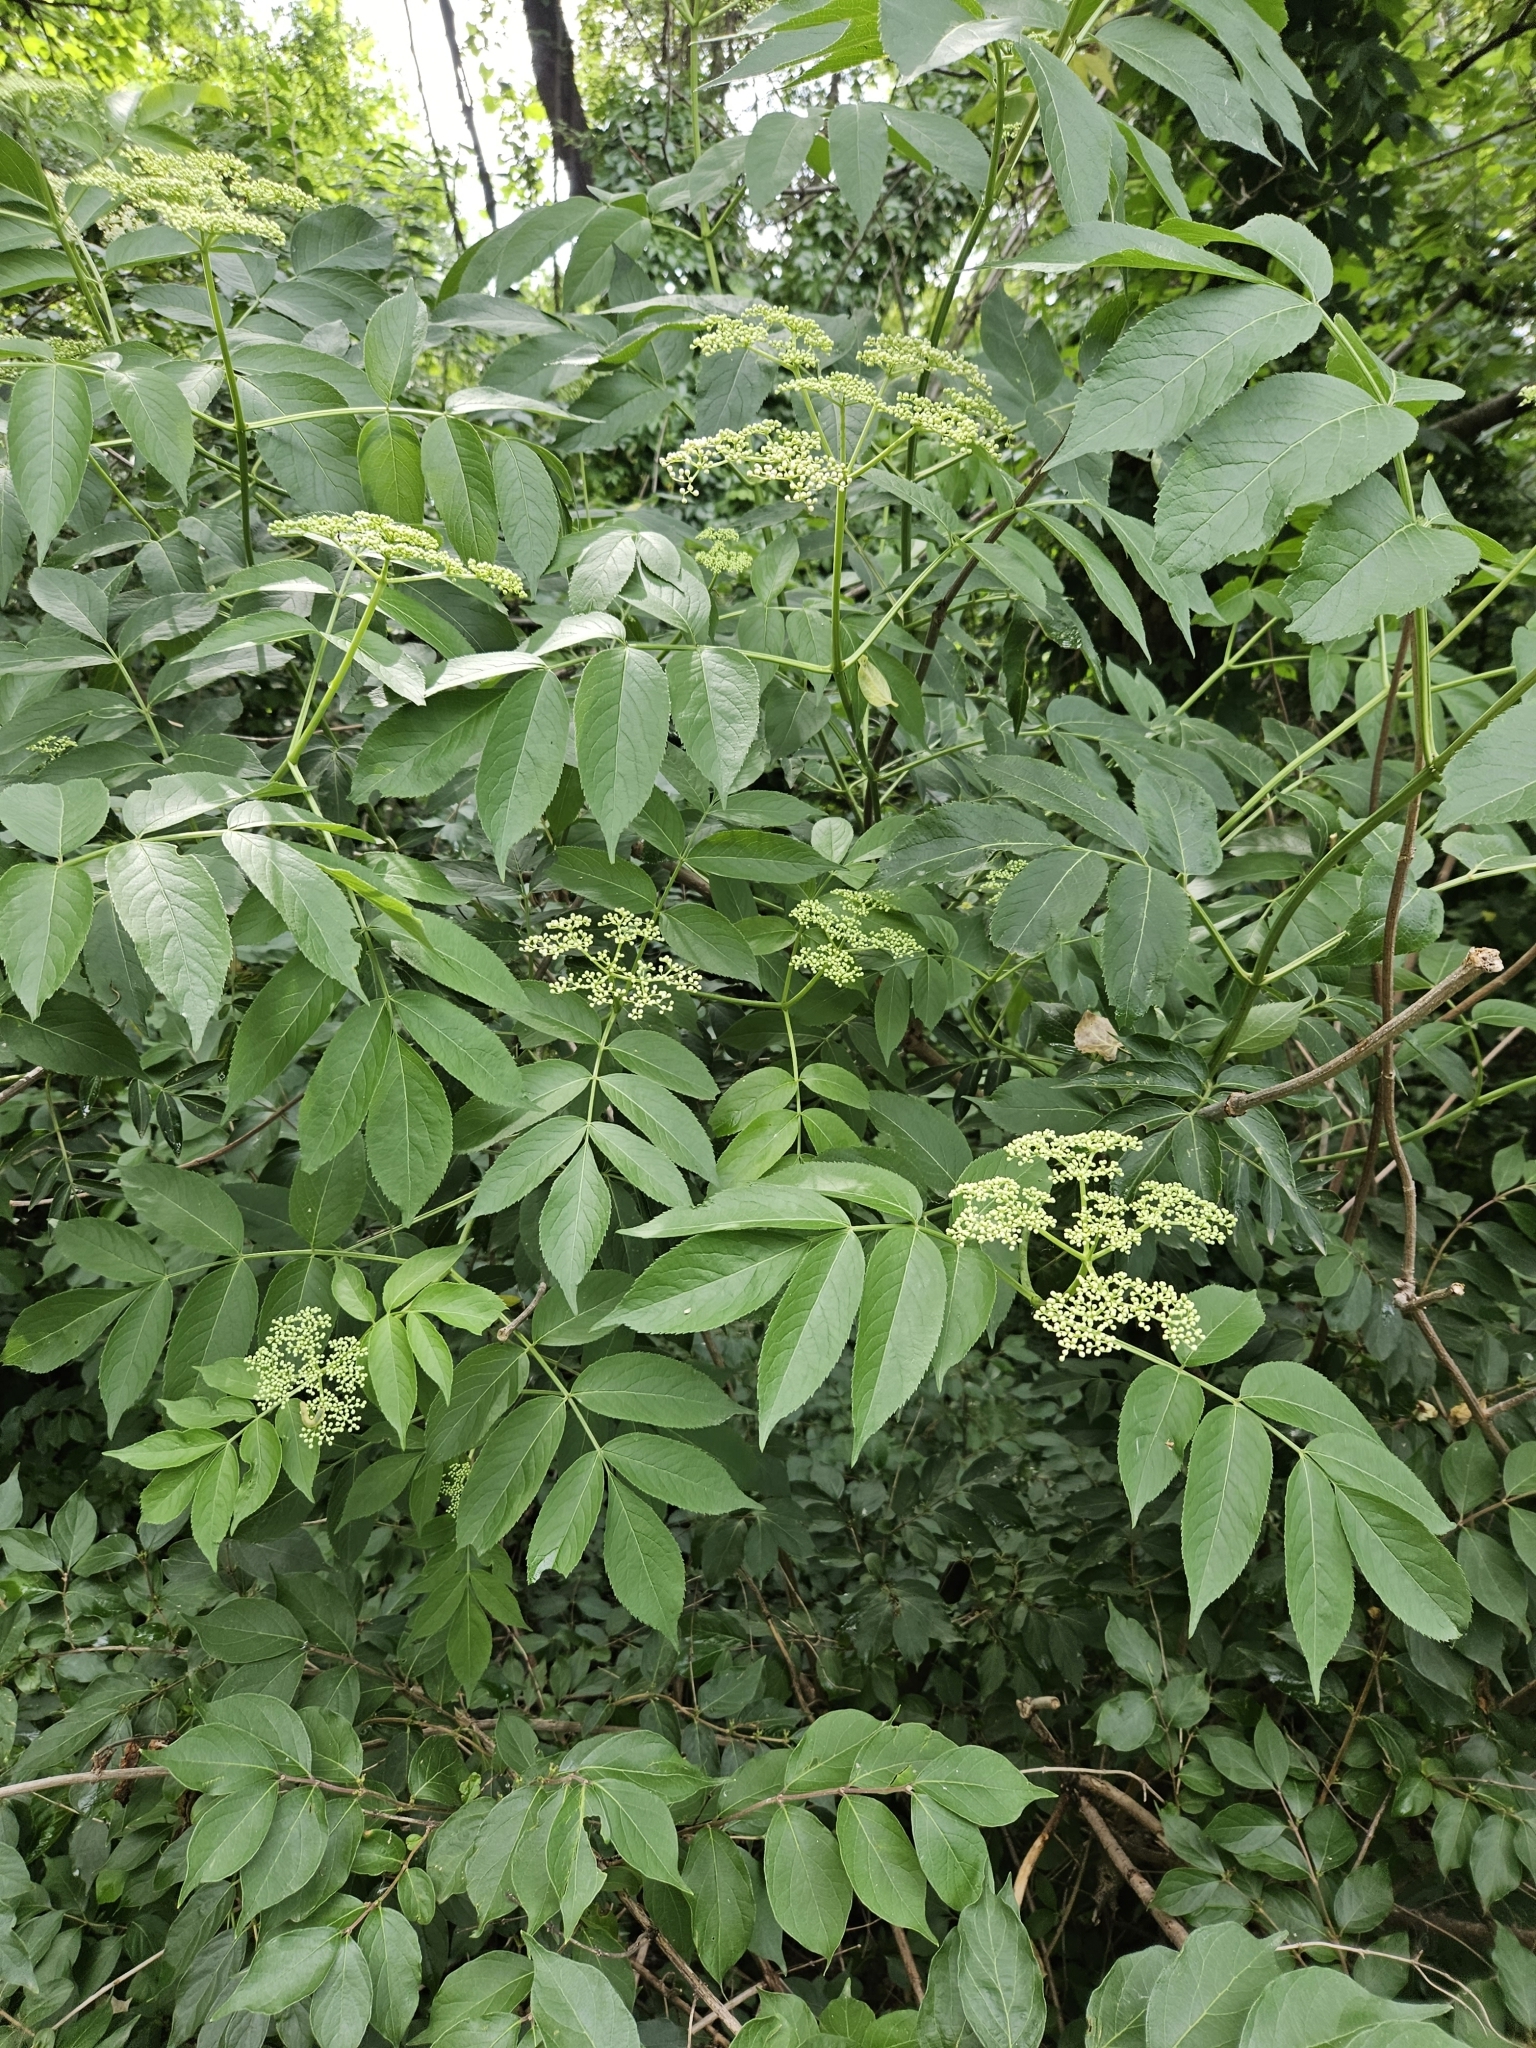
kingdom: Plantae
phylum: Tracheophyta
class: Magnoliopsida
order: Dipsacales
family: Viburnaceae
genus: Sambucus
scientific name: Sambucus canadensis
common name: American elder
